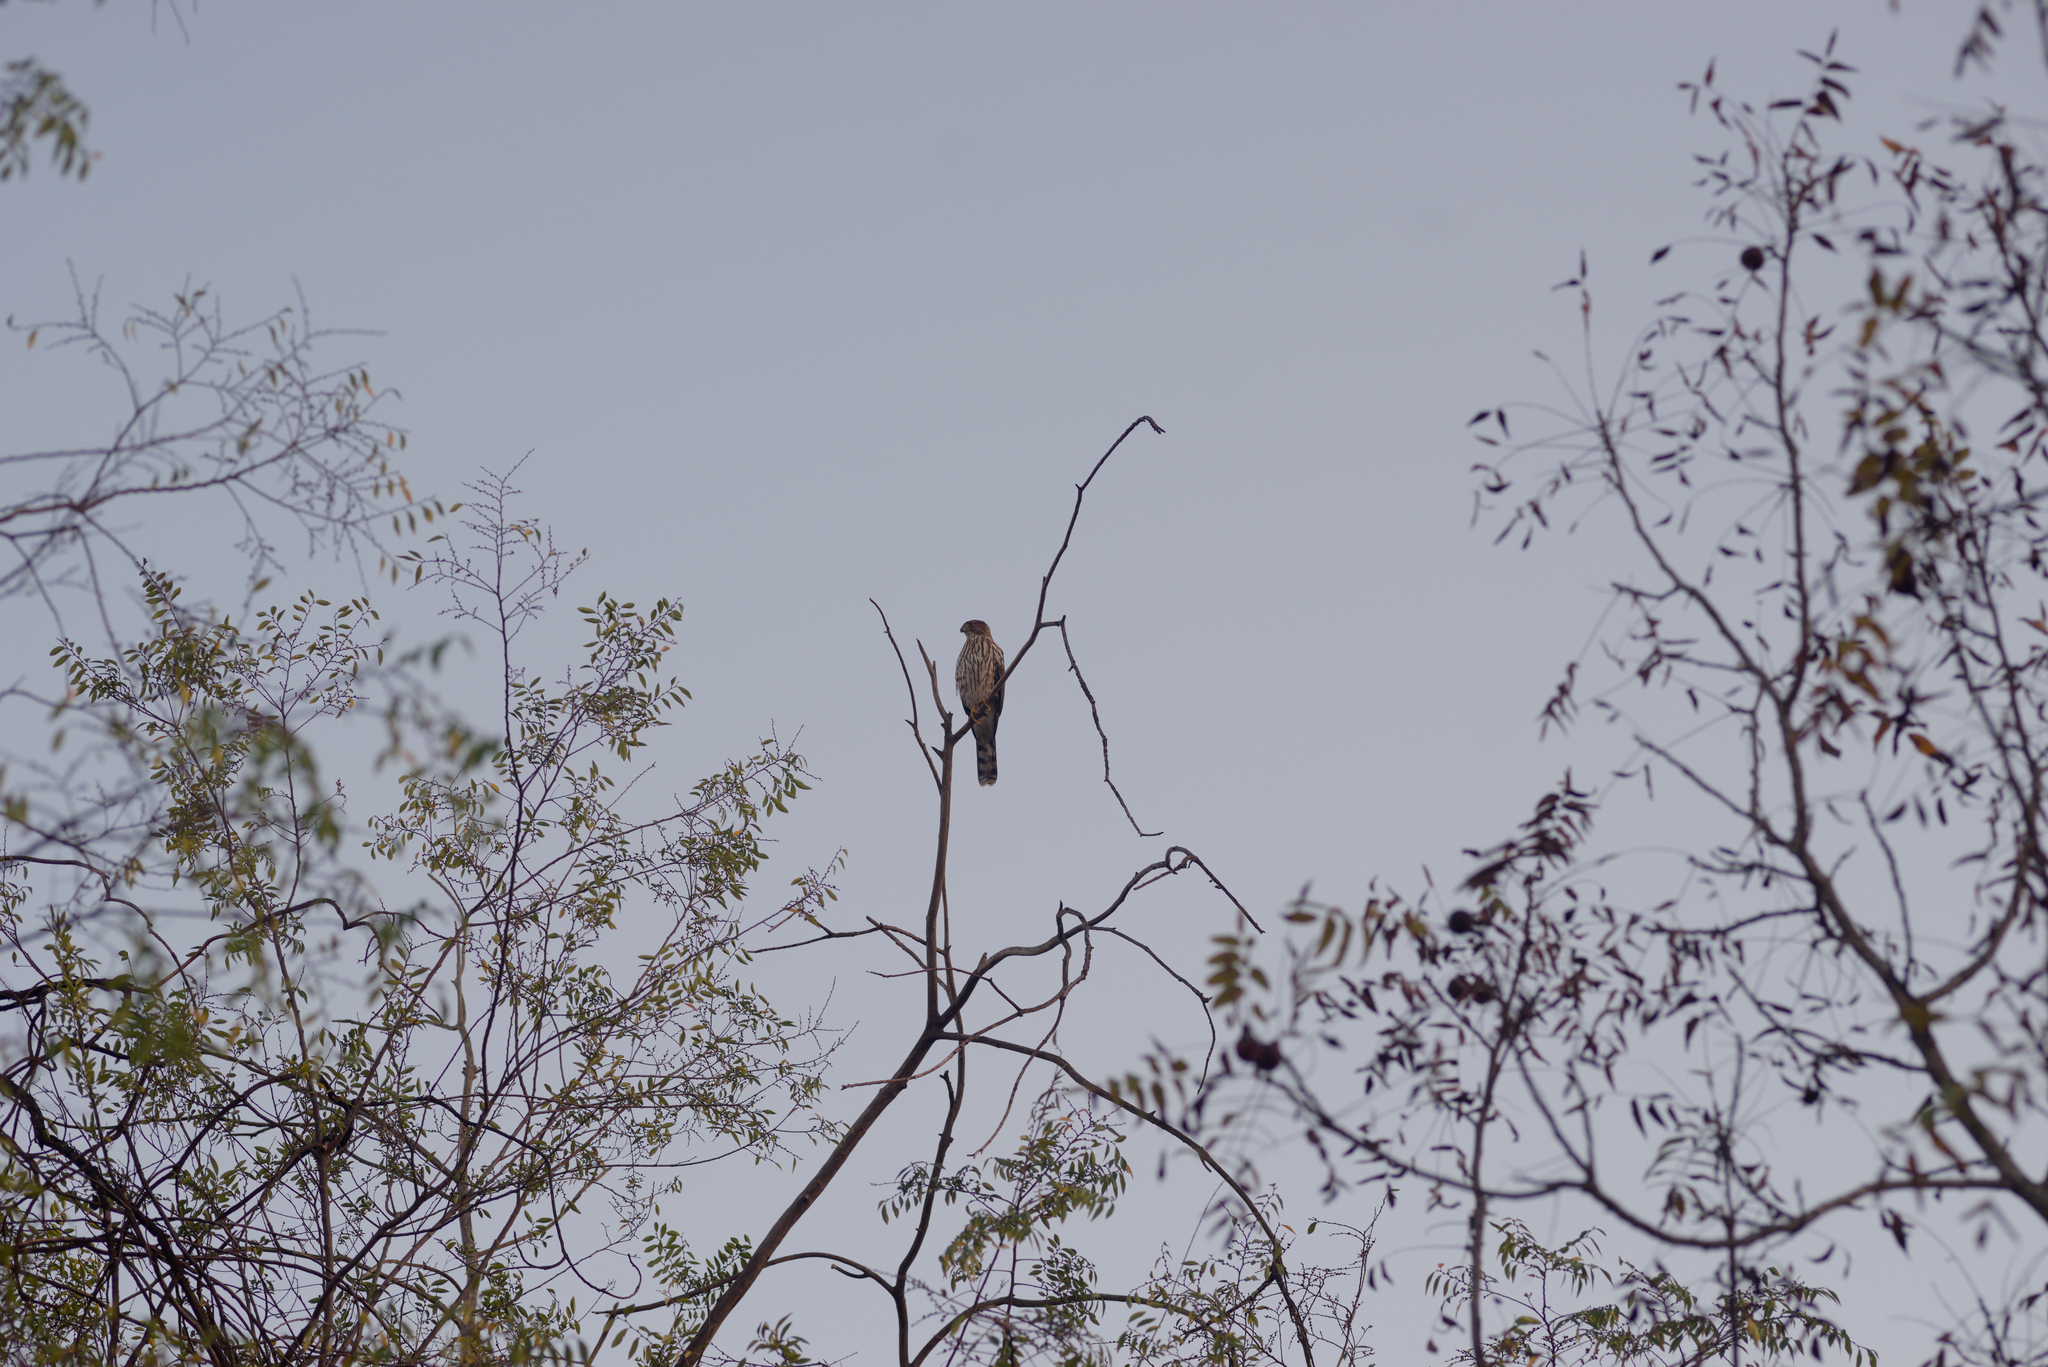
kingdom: Animalia
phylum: Chordata
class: Aves
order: Accipitriformes
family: Accipitridae
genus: Accipiter
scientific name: Accipiter cooperii
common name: Cooper's hawk
